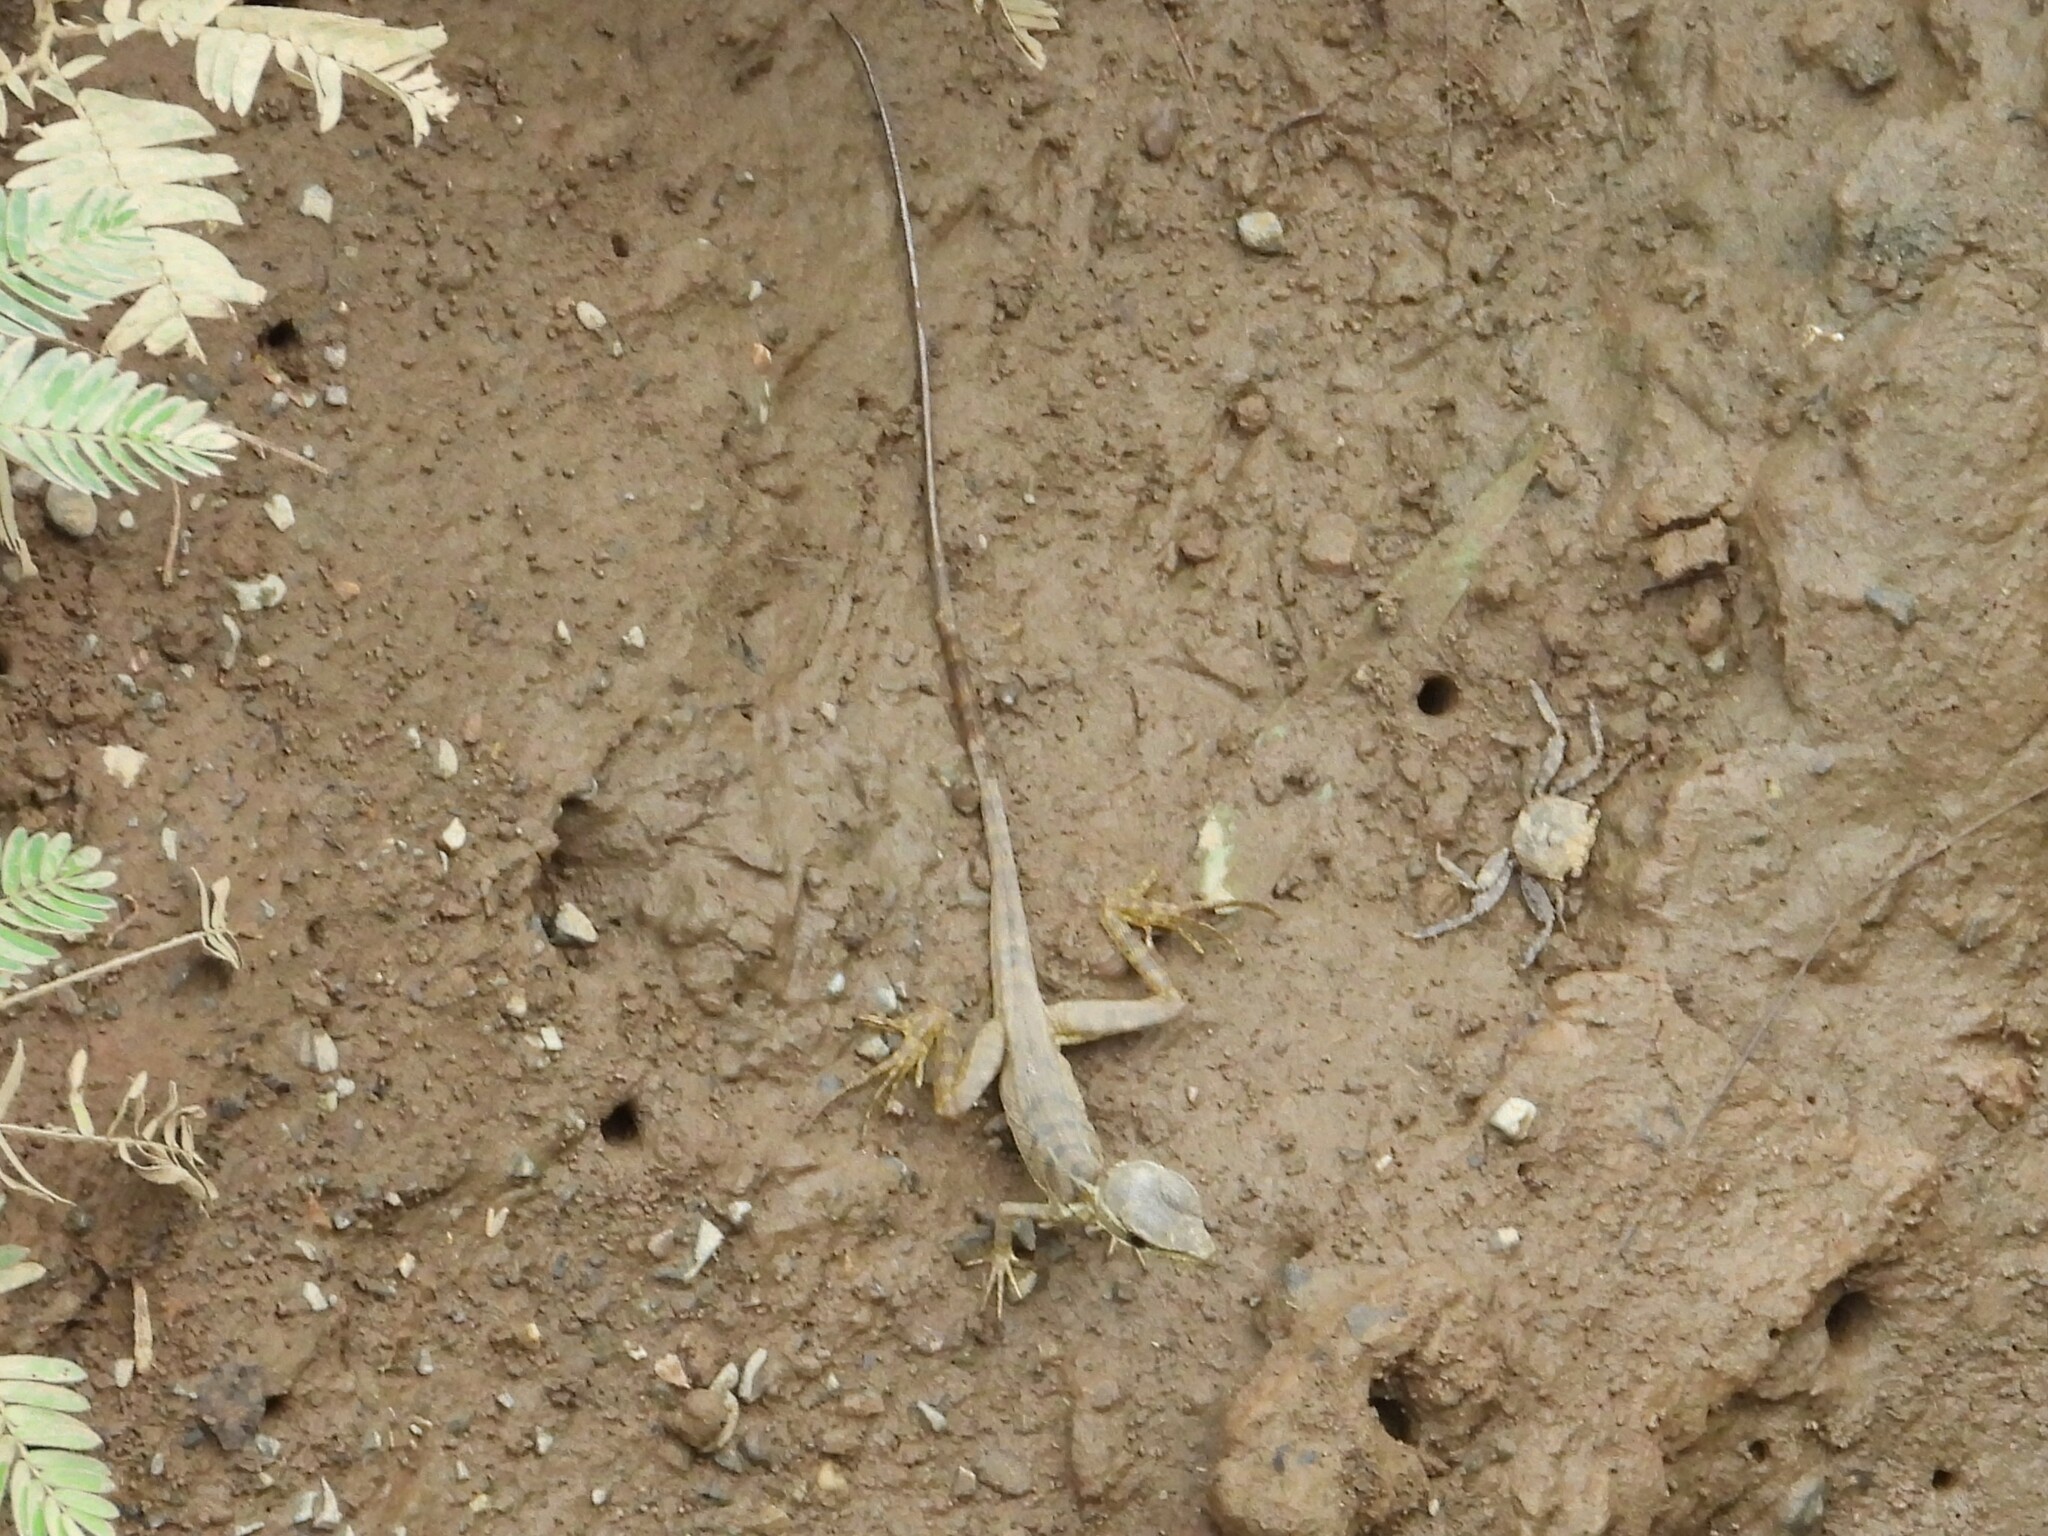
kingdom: Animalia
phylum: Chordata
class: Squamata
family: Corytophanidae
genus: Basiliscus
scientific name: Basiliscus basiliscus
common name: Common basilisk
